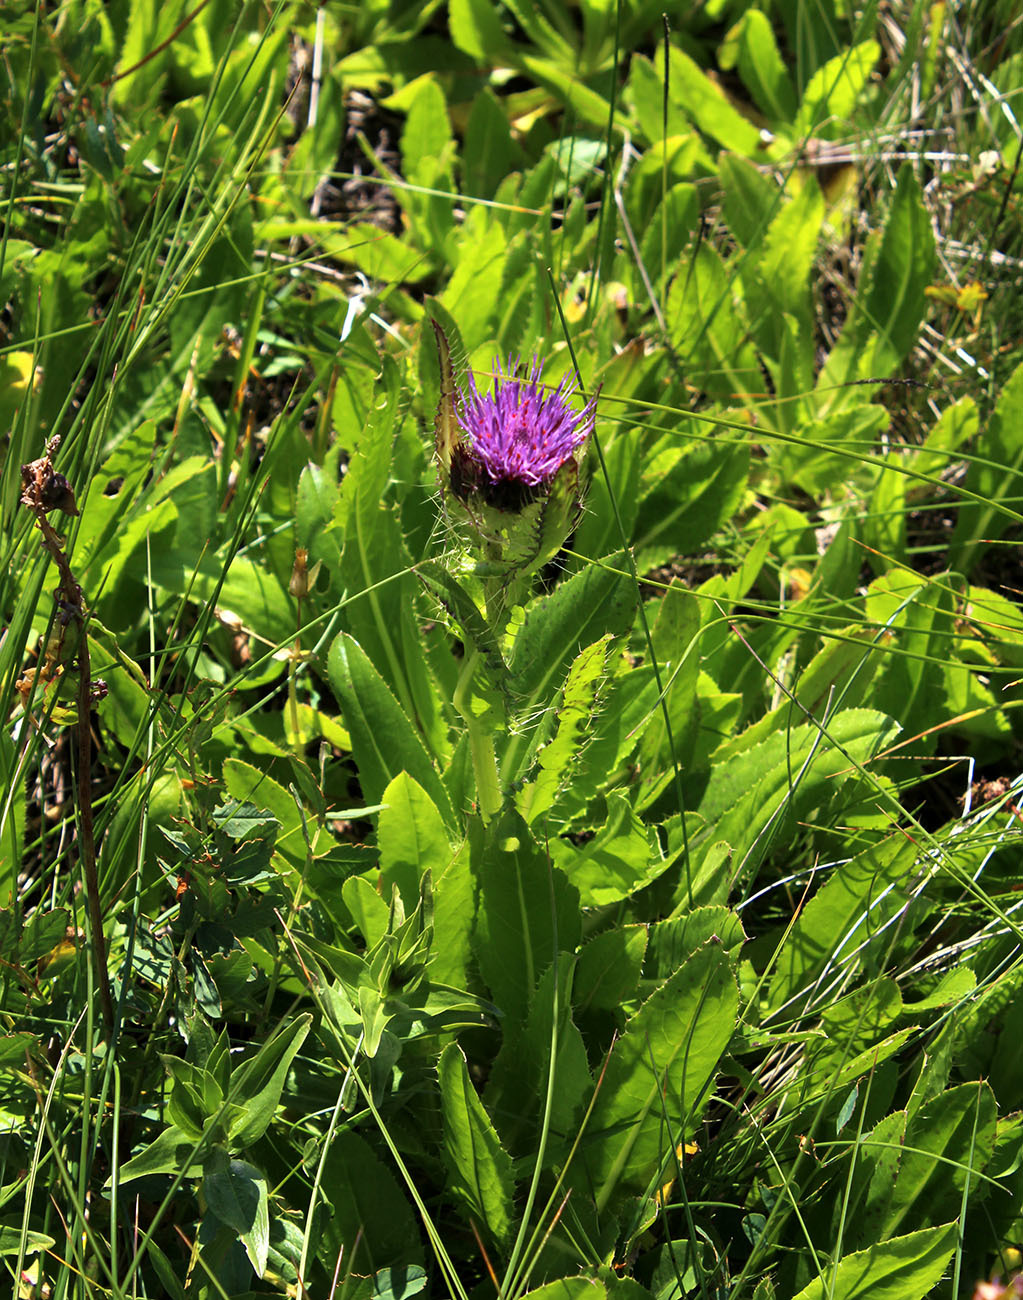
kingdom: Plantae
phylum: Tracheophyta
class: Magnoliopsida
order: Asterales
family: Asteraceae
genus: Cirsium
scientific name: Cirsium simplex
